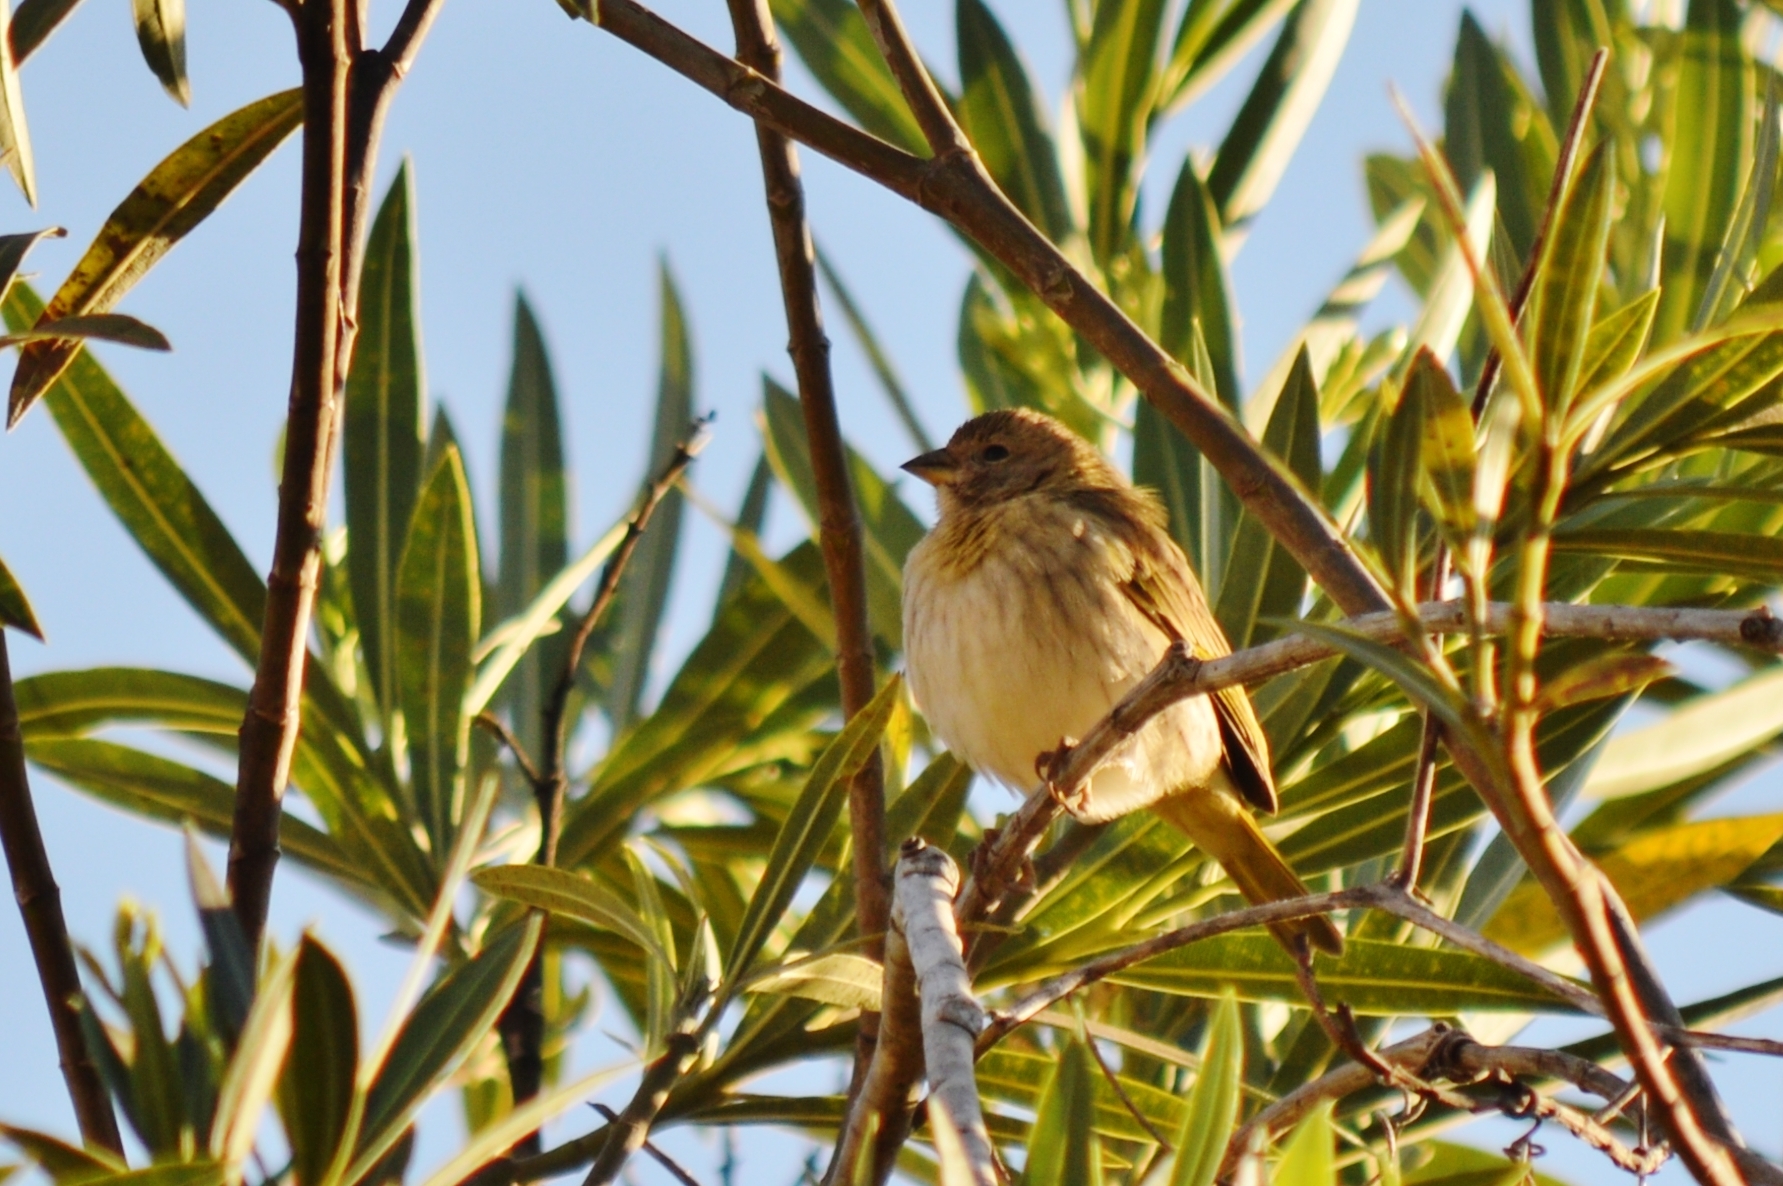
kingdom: Animalia
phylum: Chordata
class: Aves
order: Passeriformes
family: Thraupidae
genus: Sicalis
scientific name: Sicalis flaveola
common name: Saffron finch
